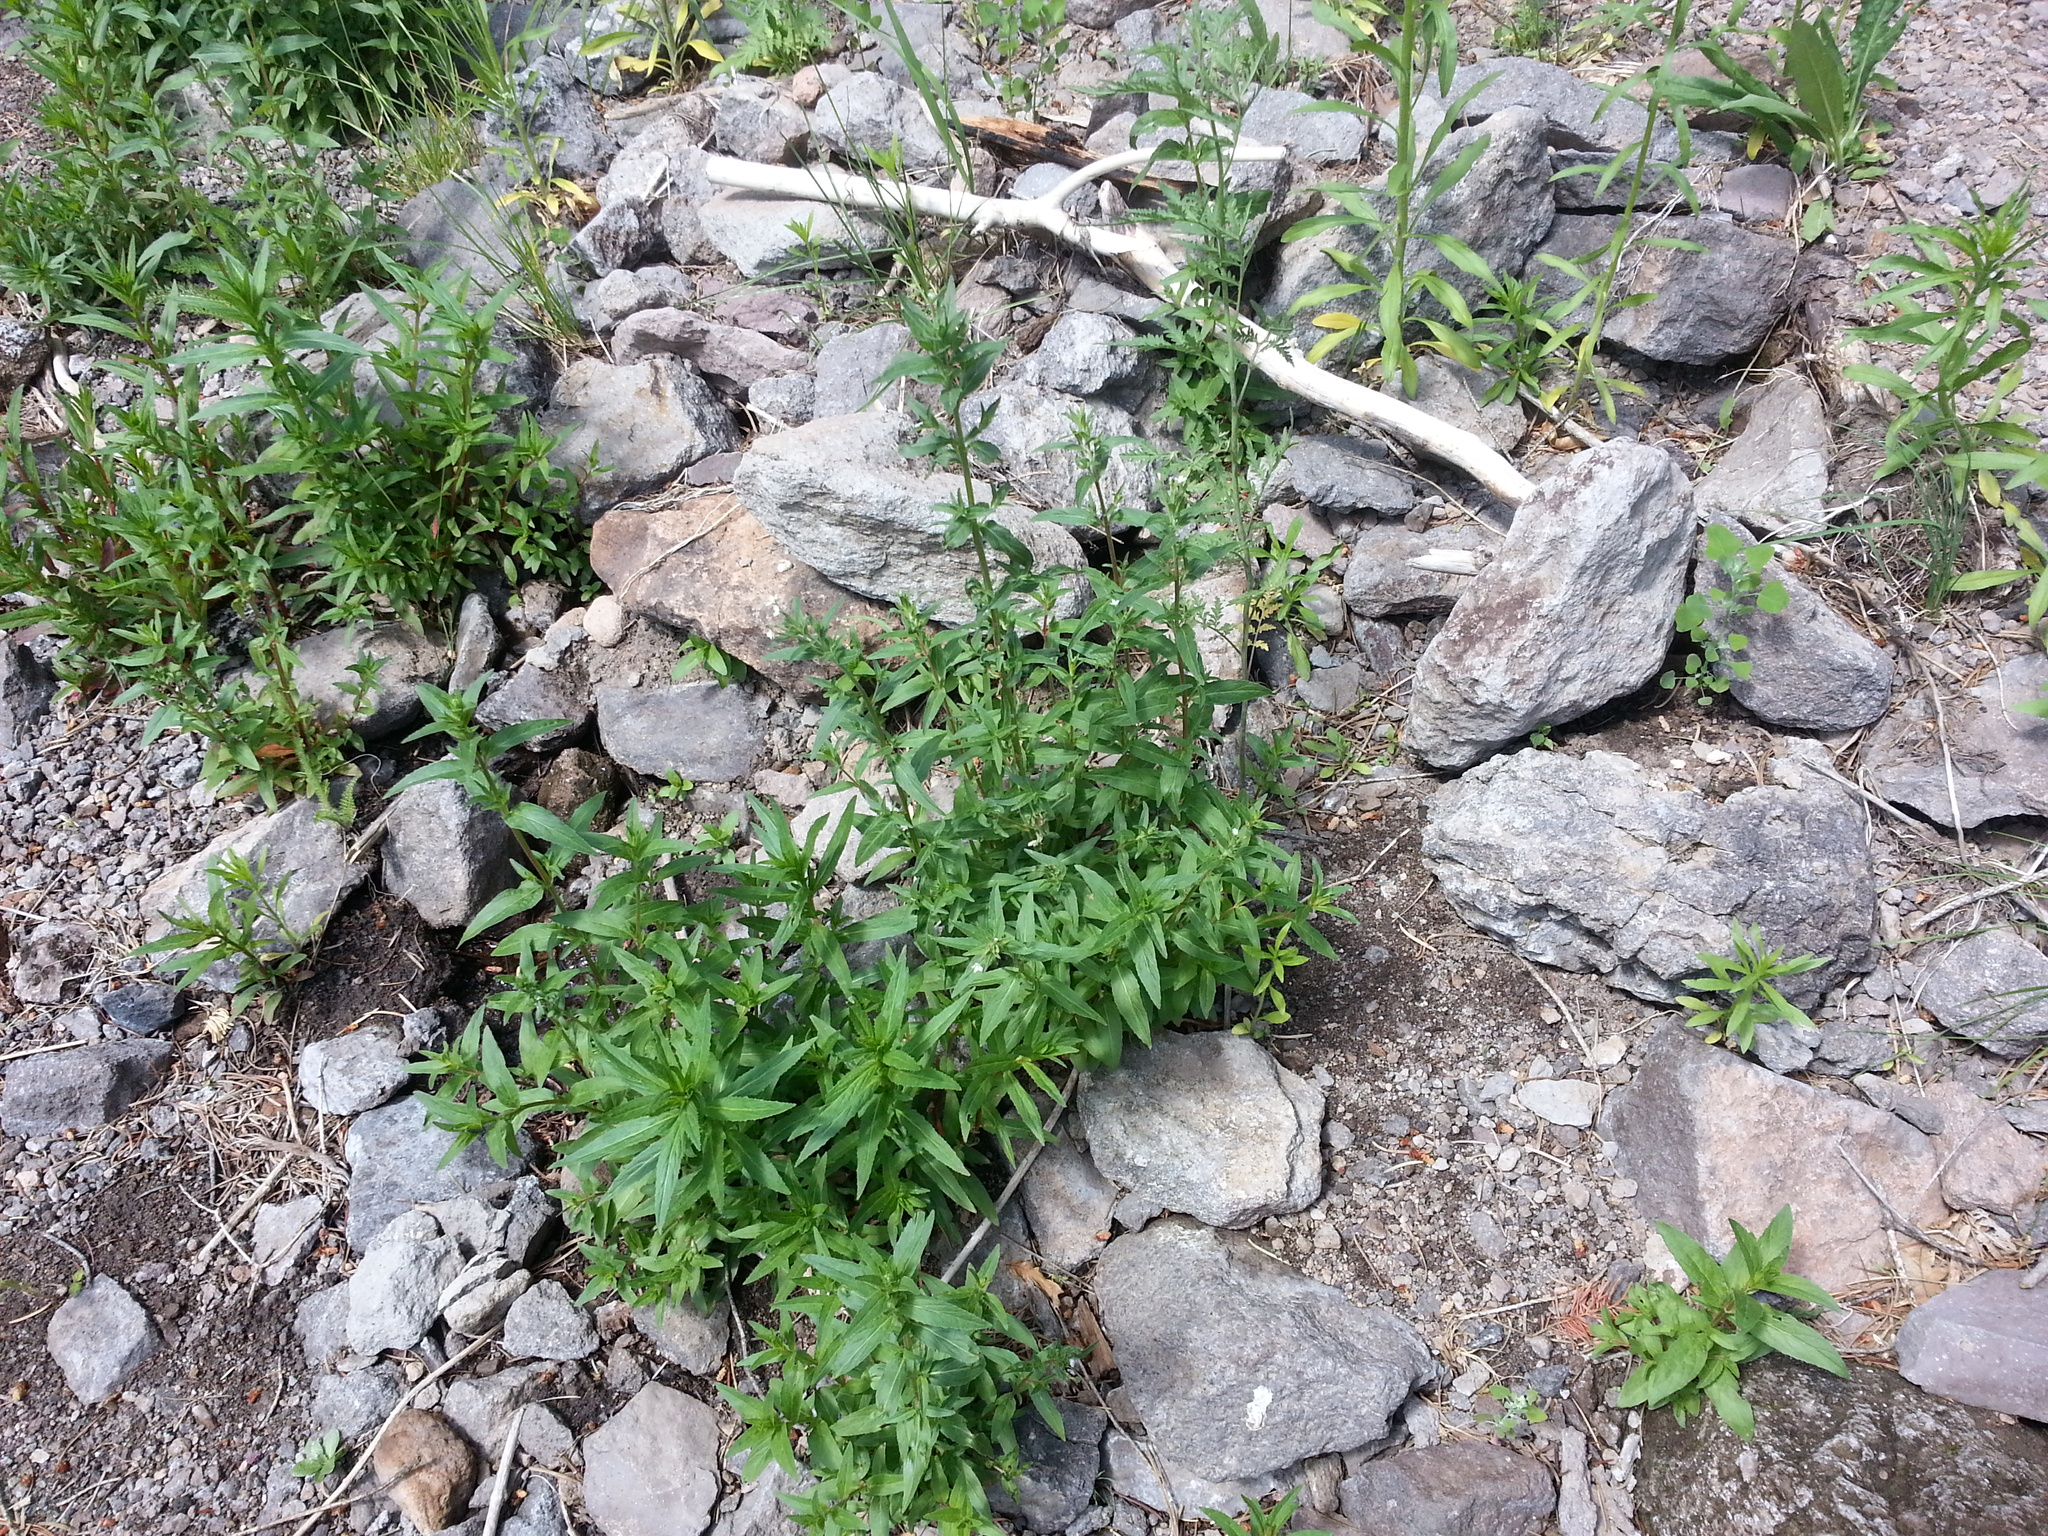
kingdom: Plantae
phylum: Tracheophyta
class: Magnoliopsida
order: Myrtales
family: Onagraceae
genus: Epilobium
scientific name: Epilobium ciliatum
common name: American willowherb
